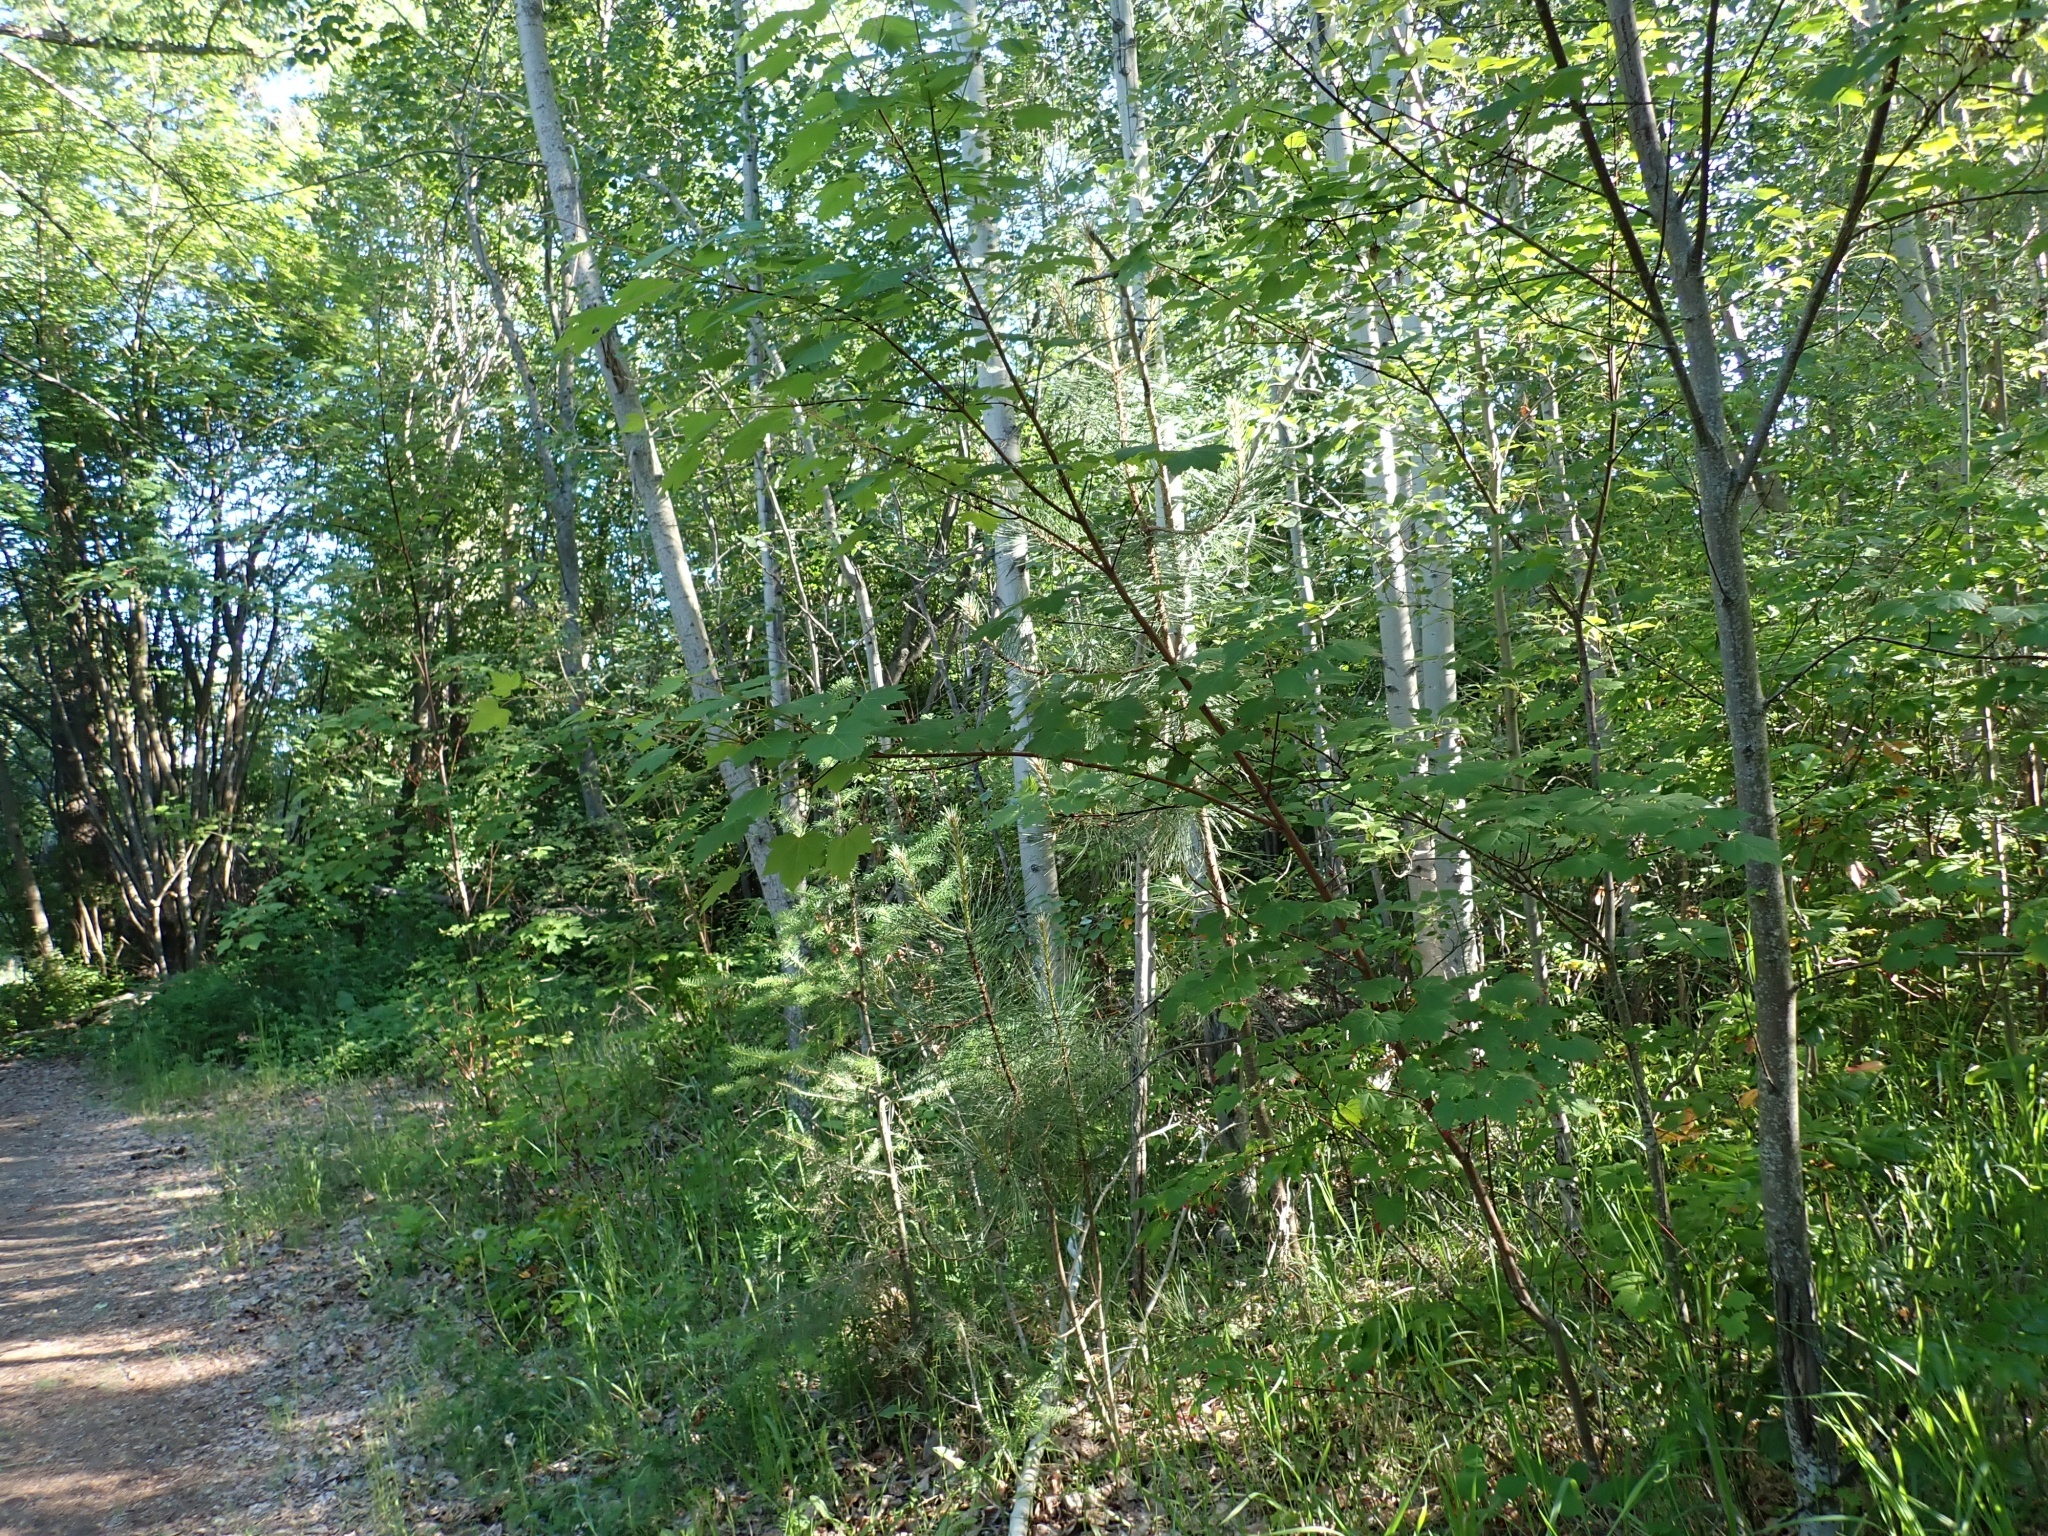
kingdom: Plantae
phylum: Tracheophyta
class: Magnoliopsida
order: Sapindales
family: Sapindaceae
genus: Acer
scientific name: Acer glabrum
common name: Rocky mountain maple
